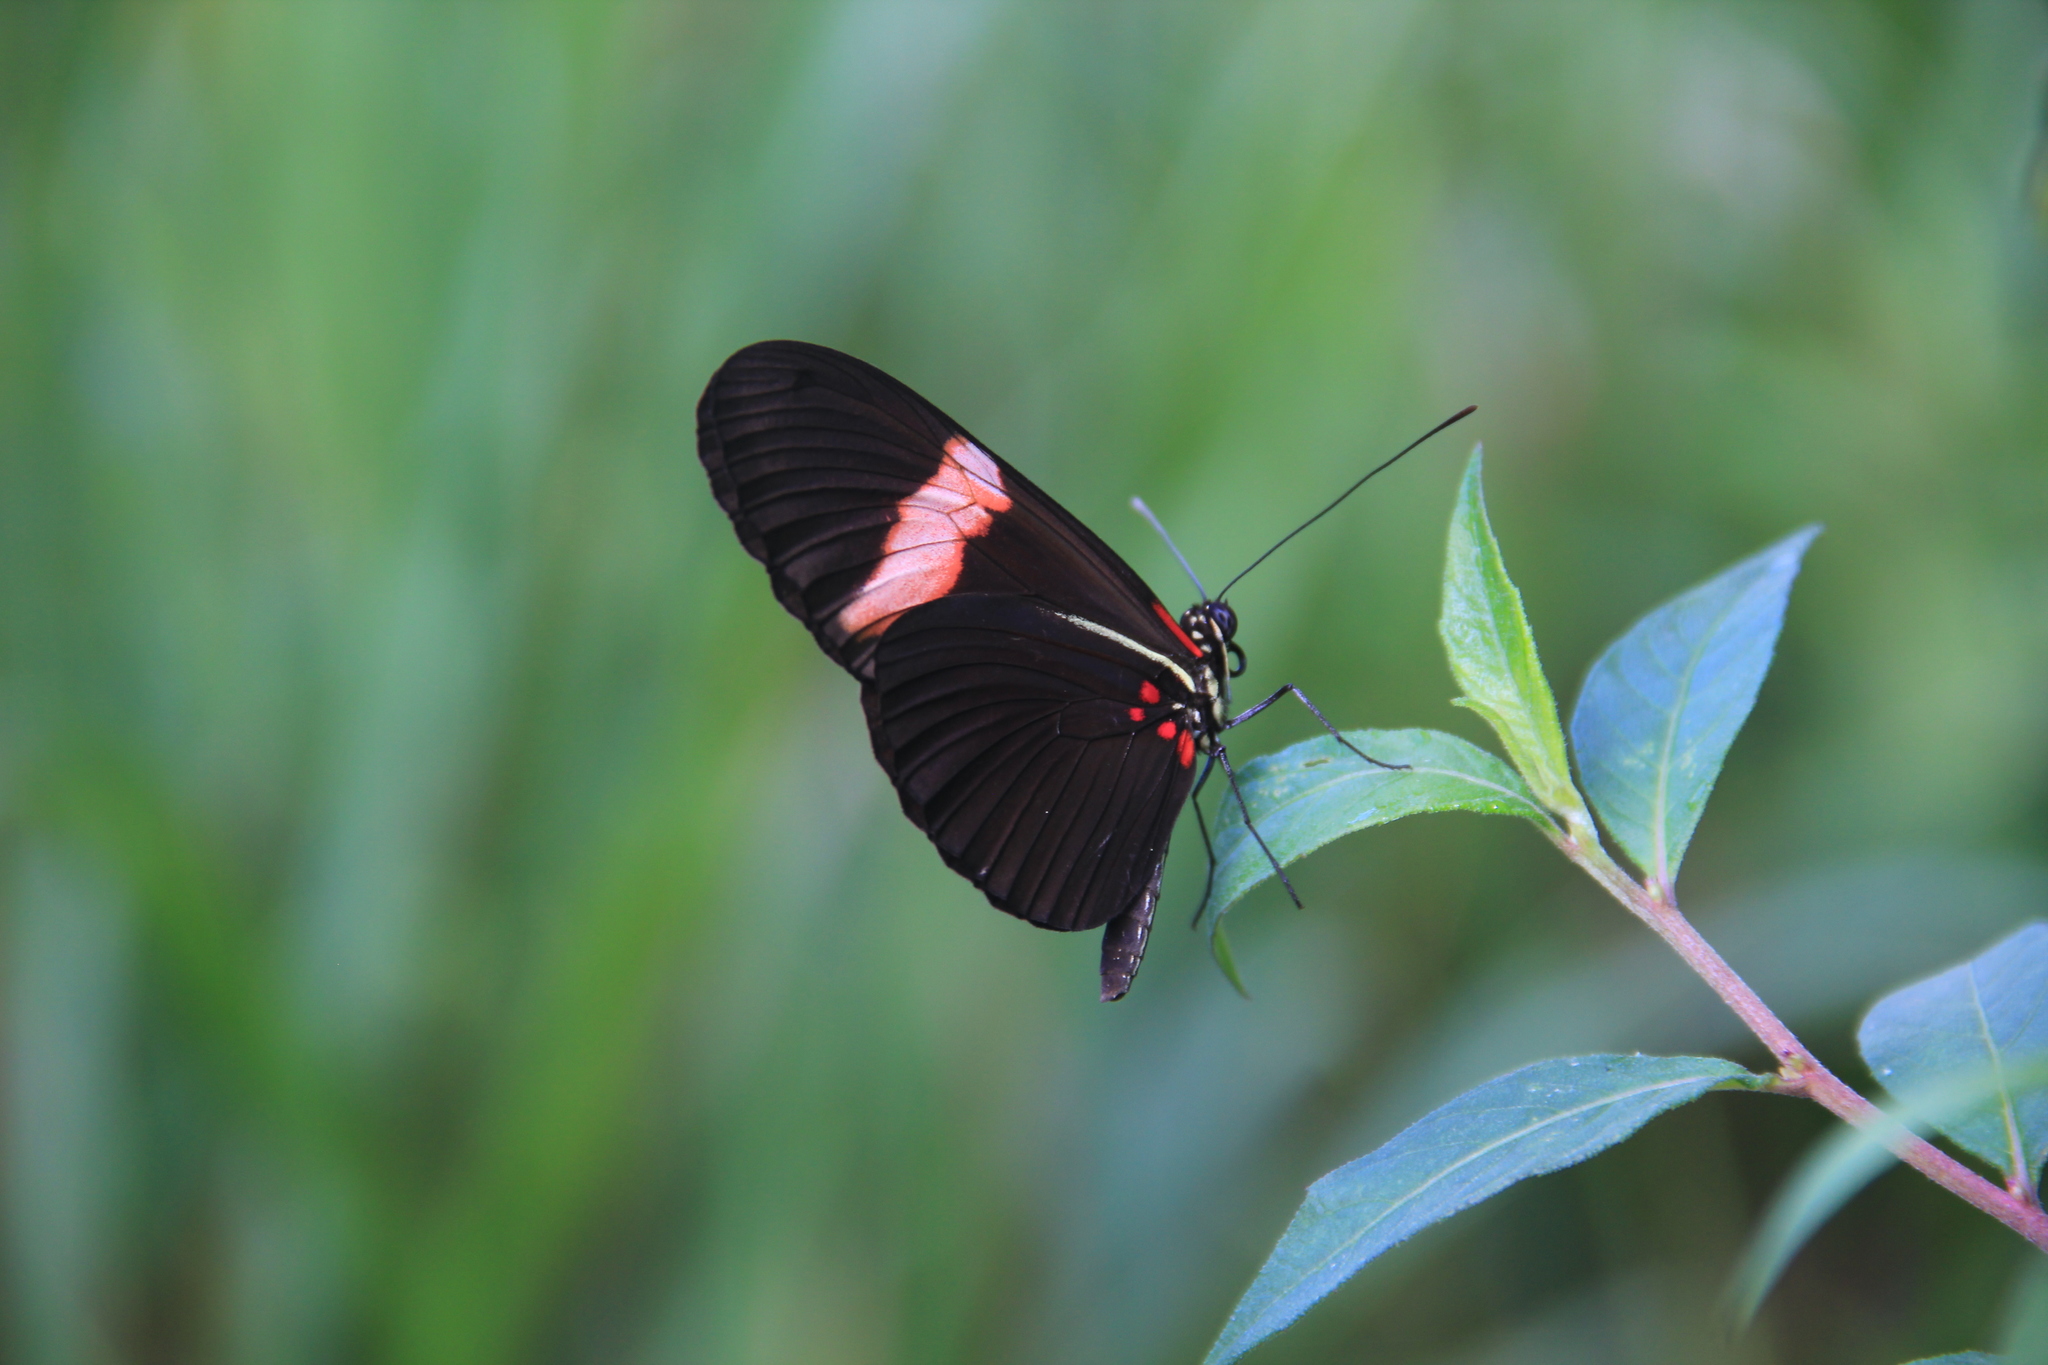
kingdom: Animalia
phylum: Arthropoda
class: Insecta
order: Lepidoptera
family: Nymphalidae
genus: Heliconius
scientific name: Heliconius erato
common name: Common patch longwing
